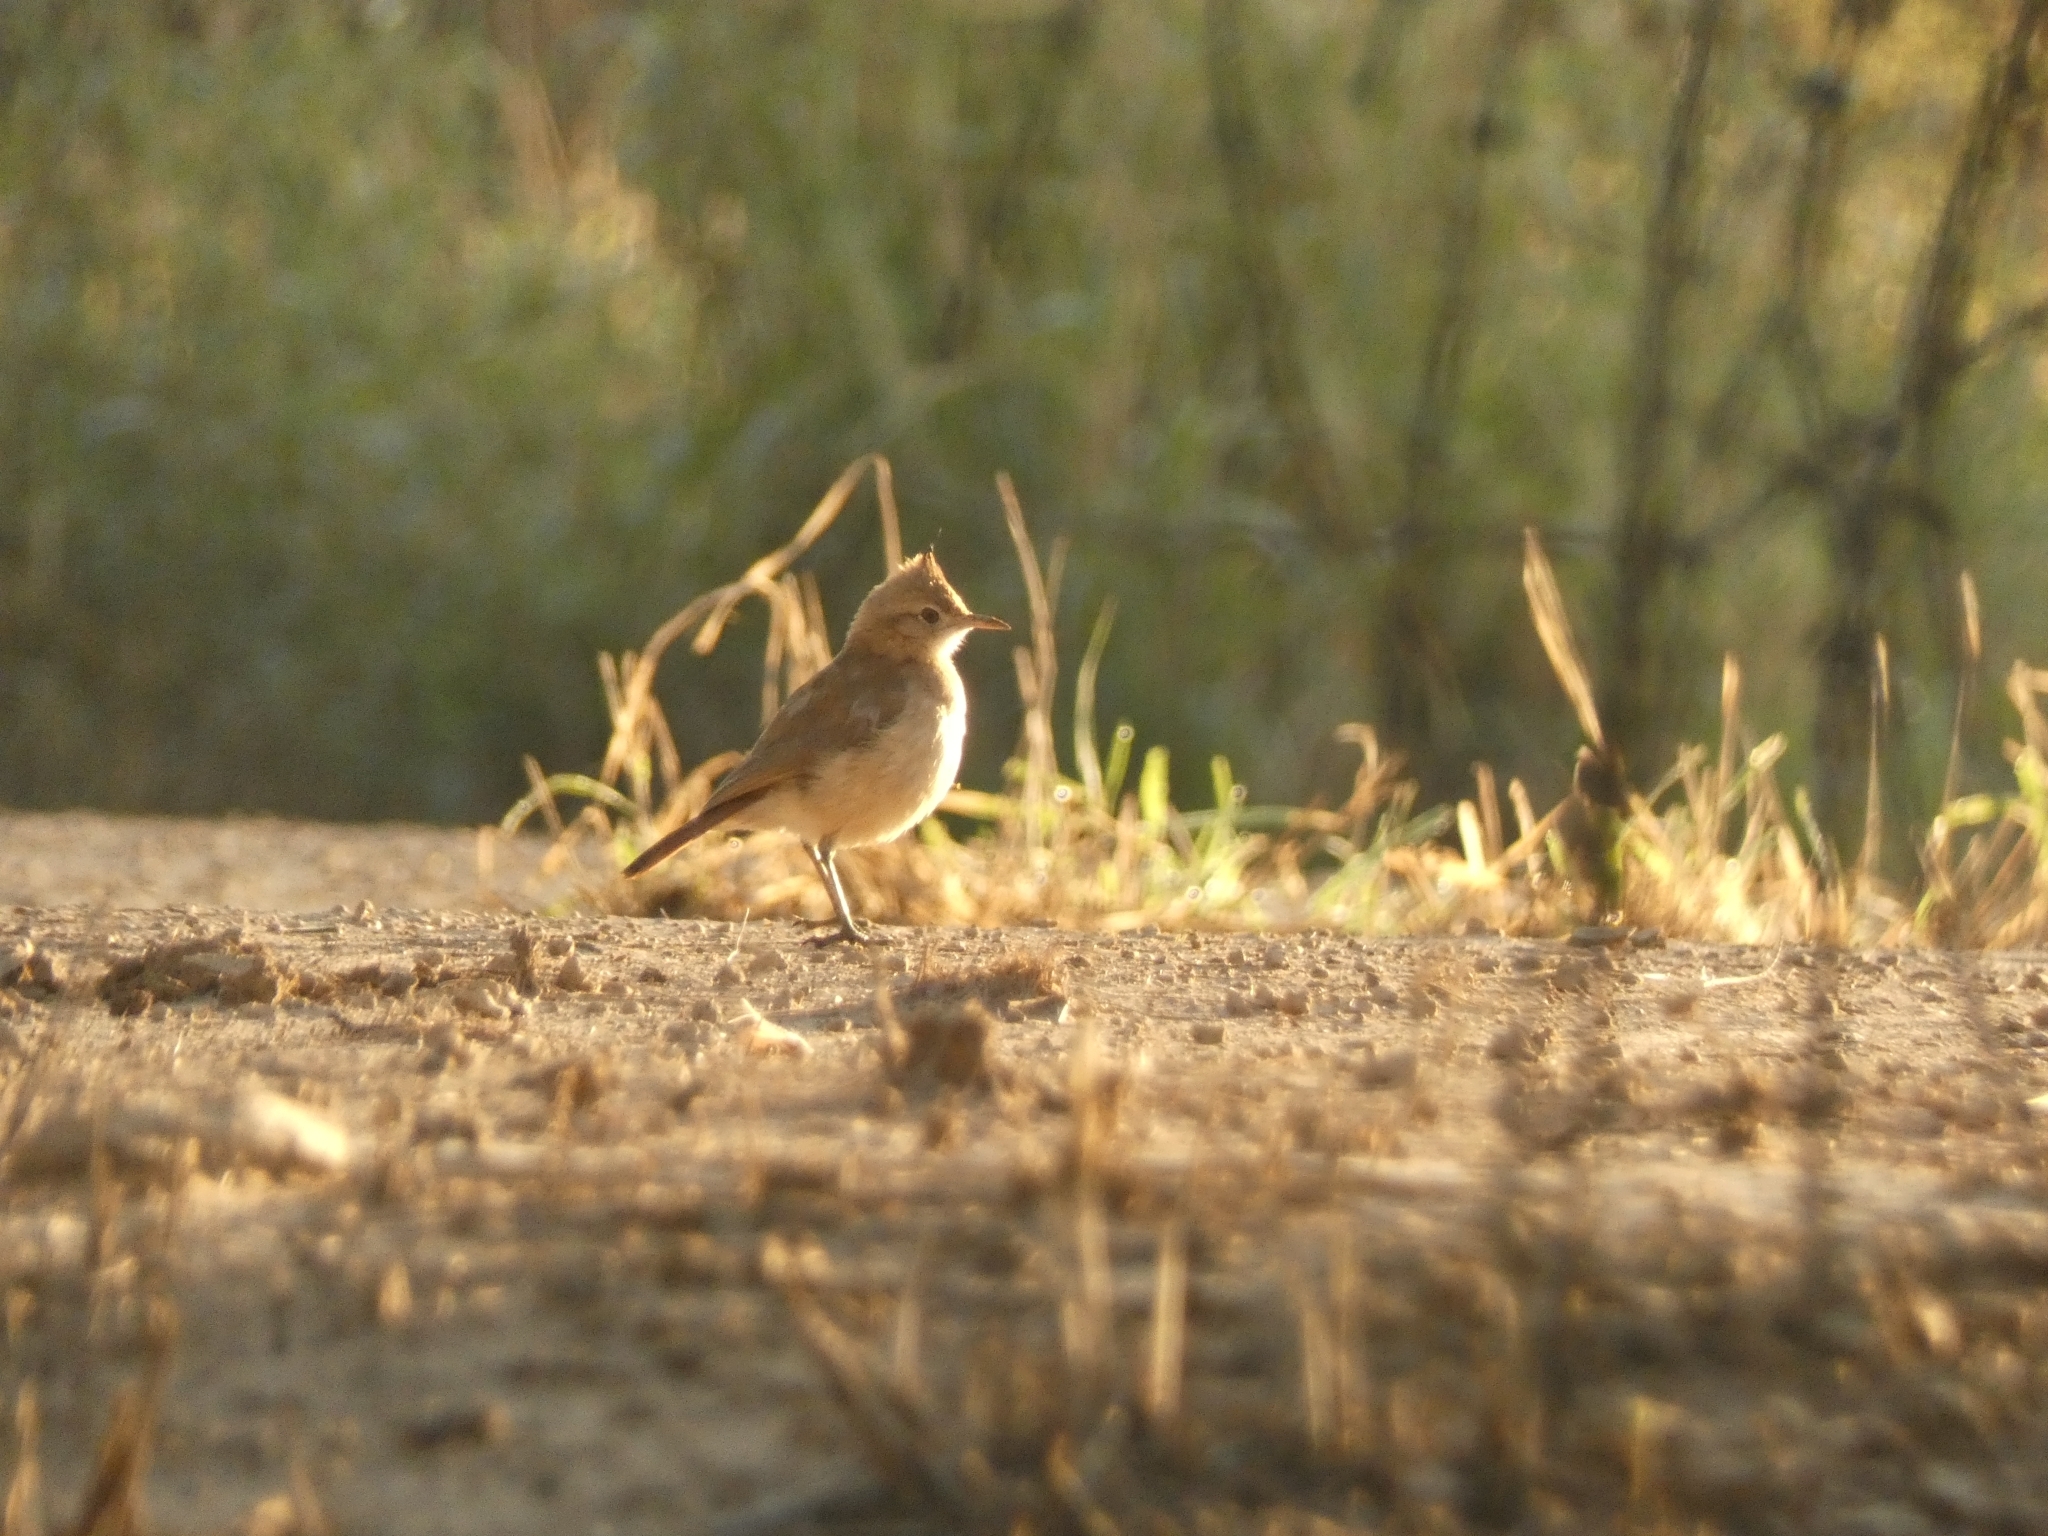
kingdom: Animalia
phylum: Chordata
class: Aves
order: Passeriformes
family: Furnariidae
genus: Furnarius
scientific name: Furnarius cristatus
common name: Crested hornero
